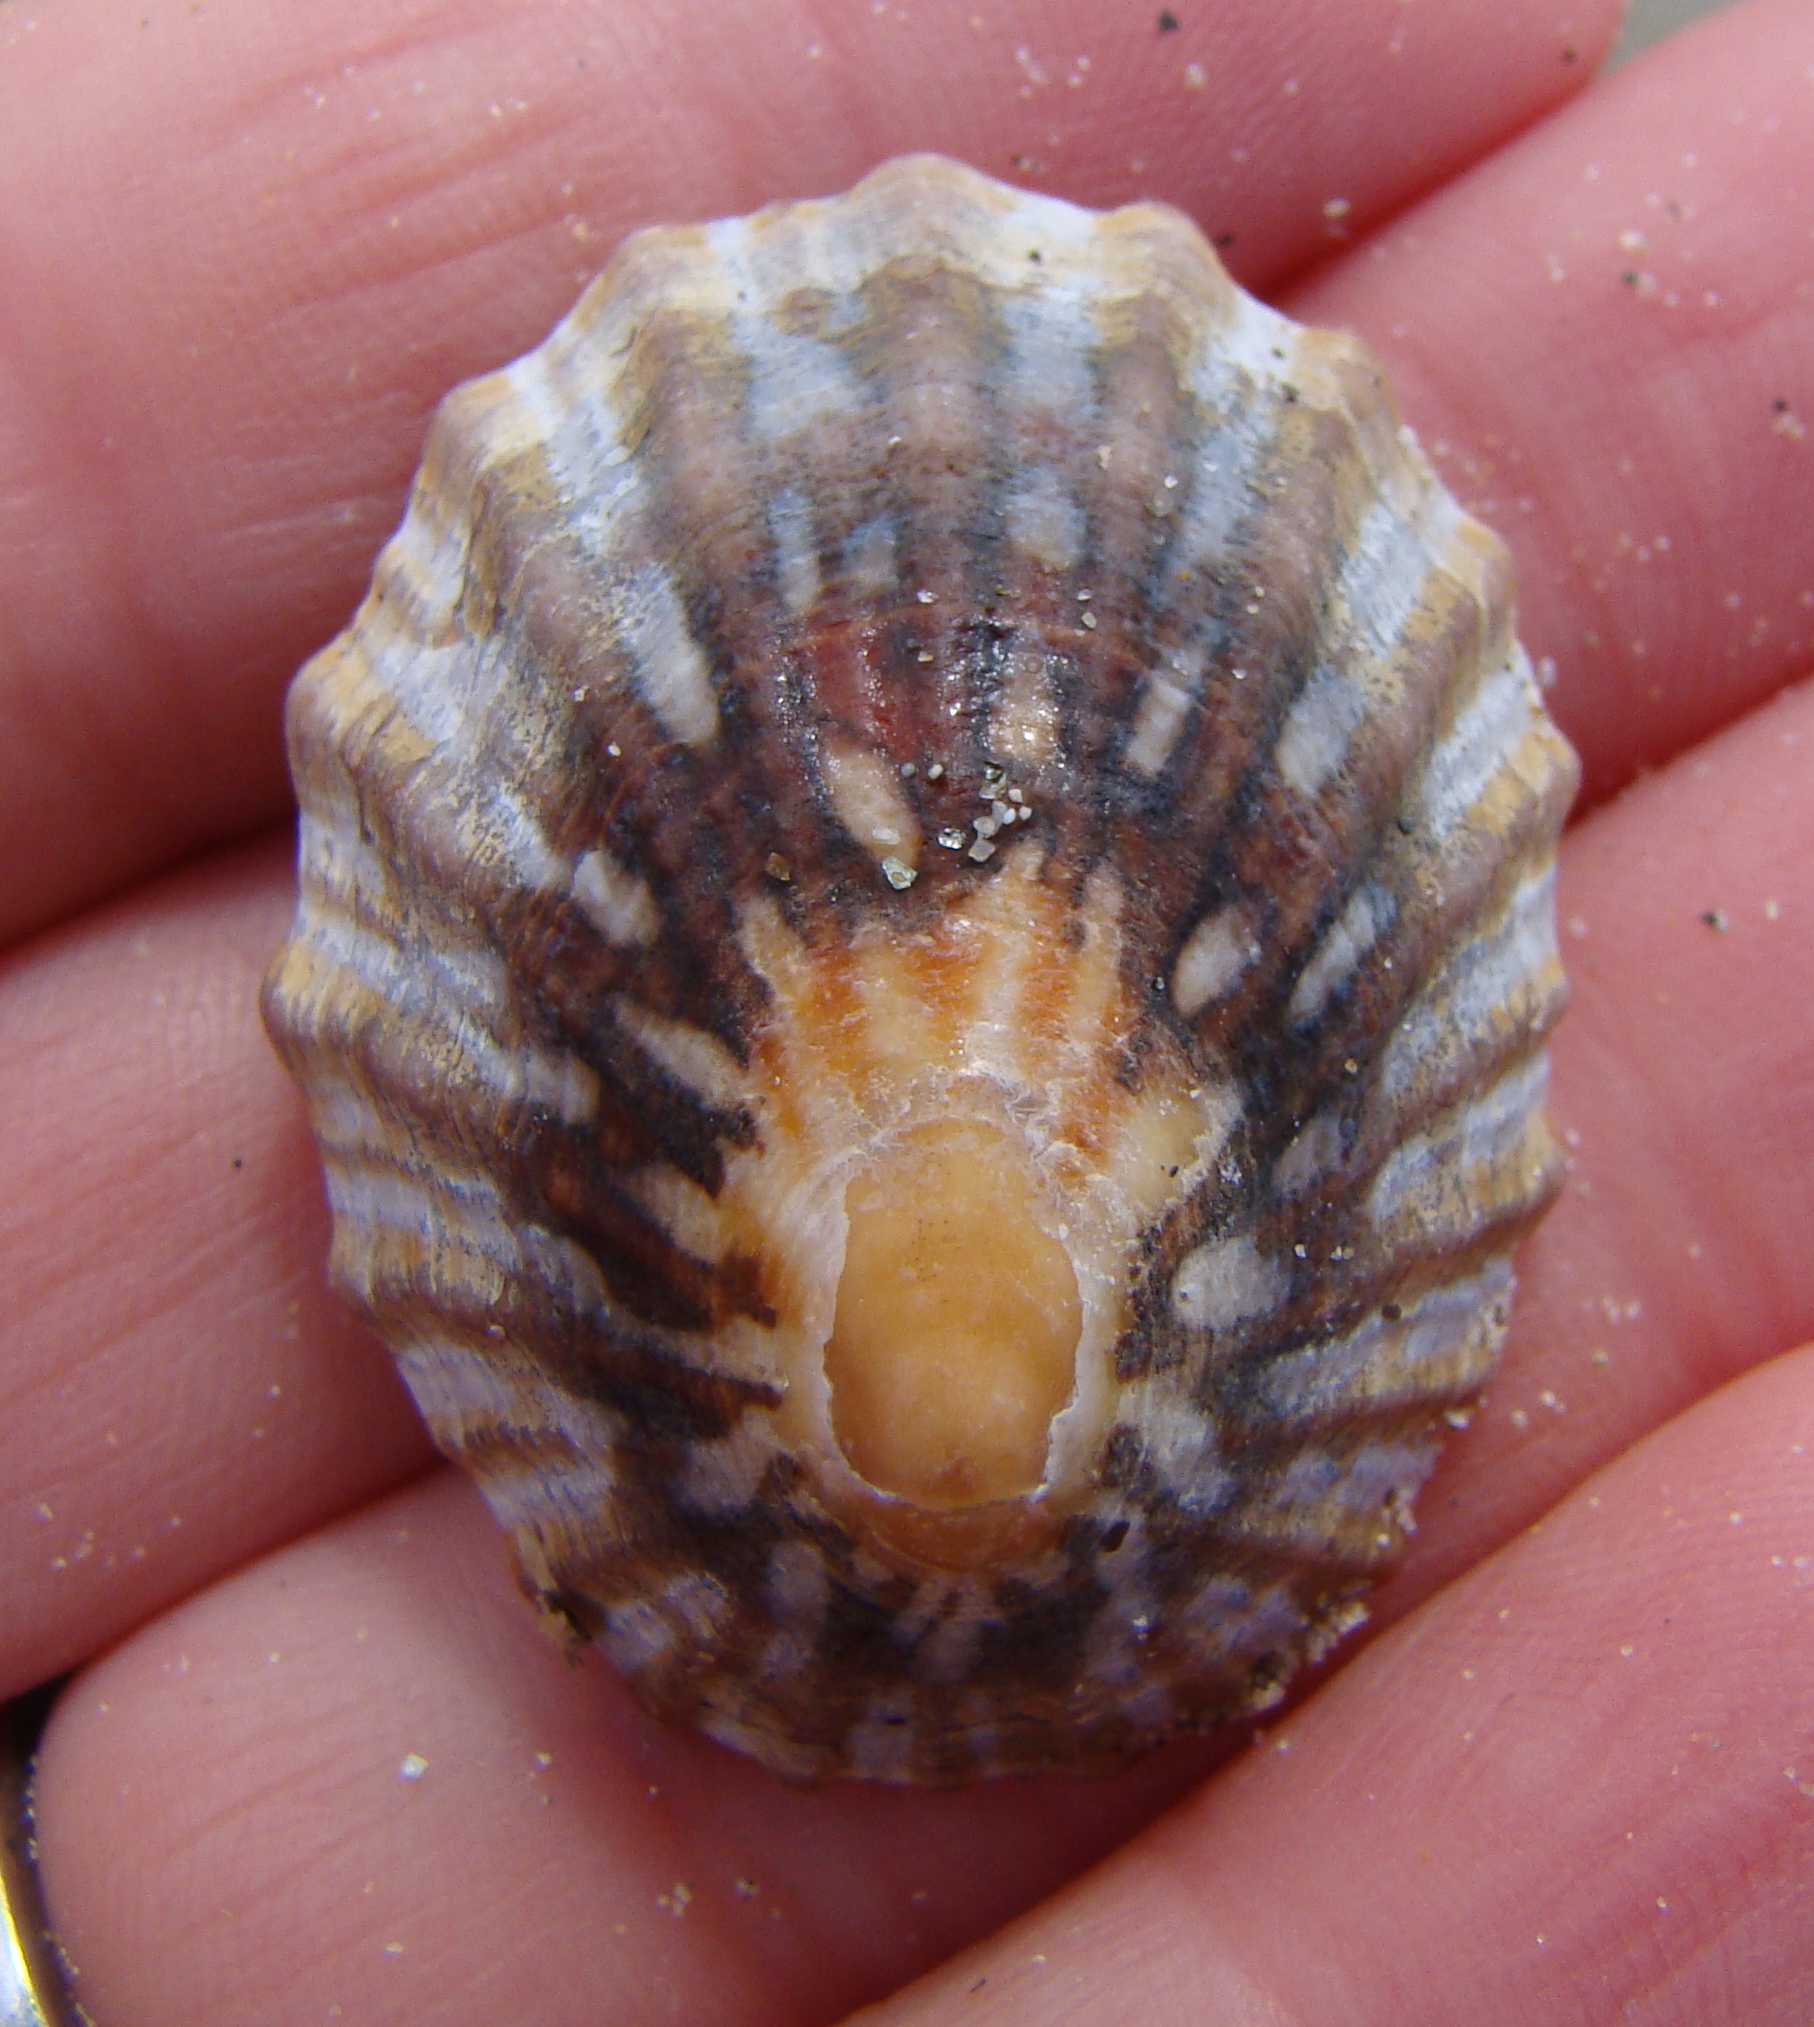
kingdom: Animalia
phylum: Mollusca
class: Gastropoda
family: Nacellidae
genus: Cellana
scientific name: Cellana strigilis
